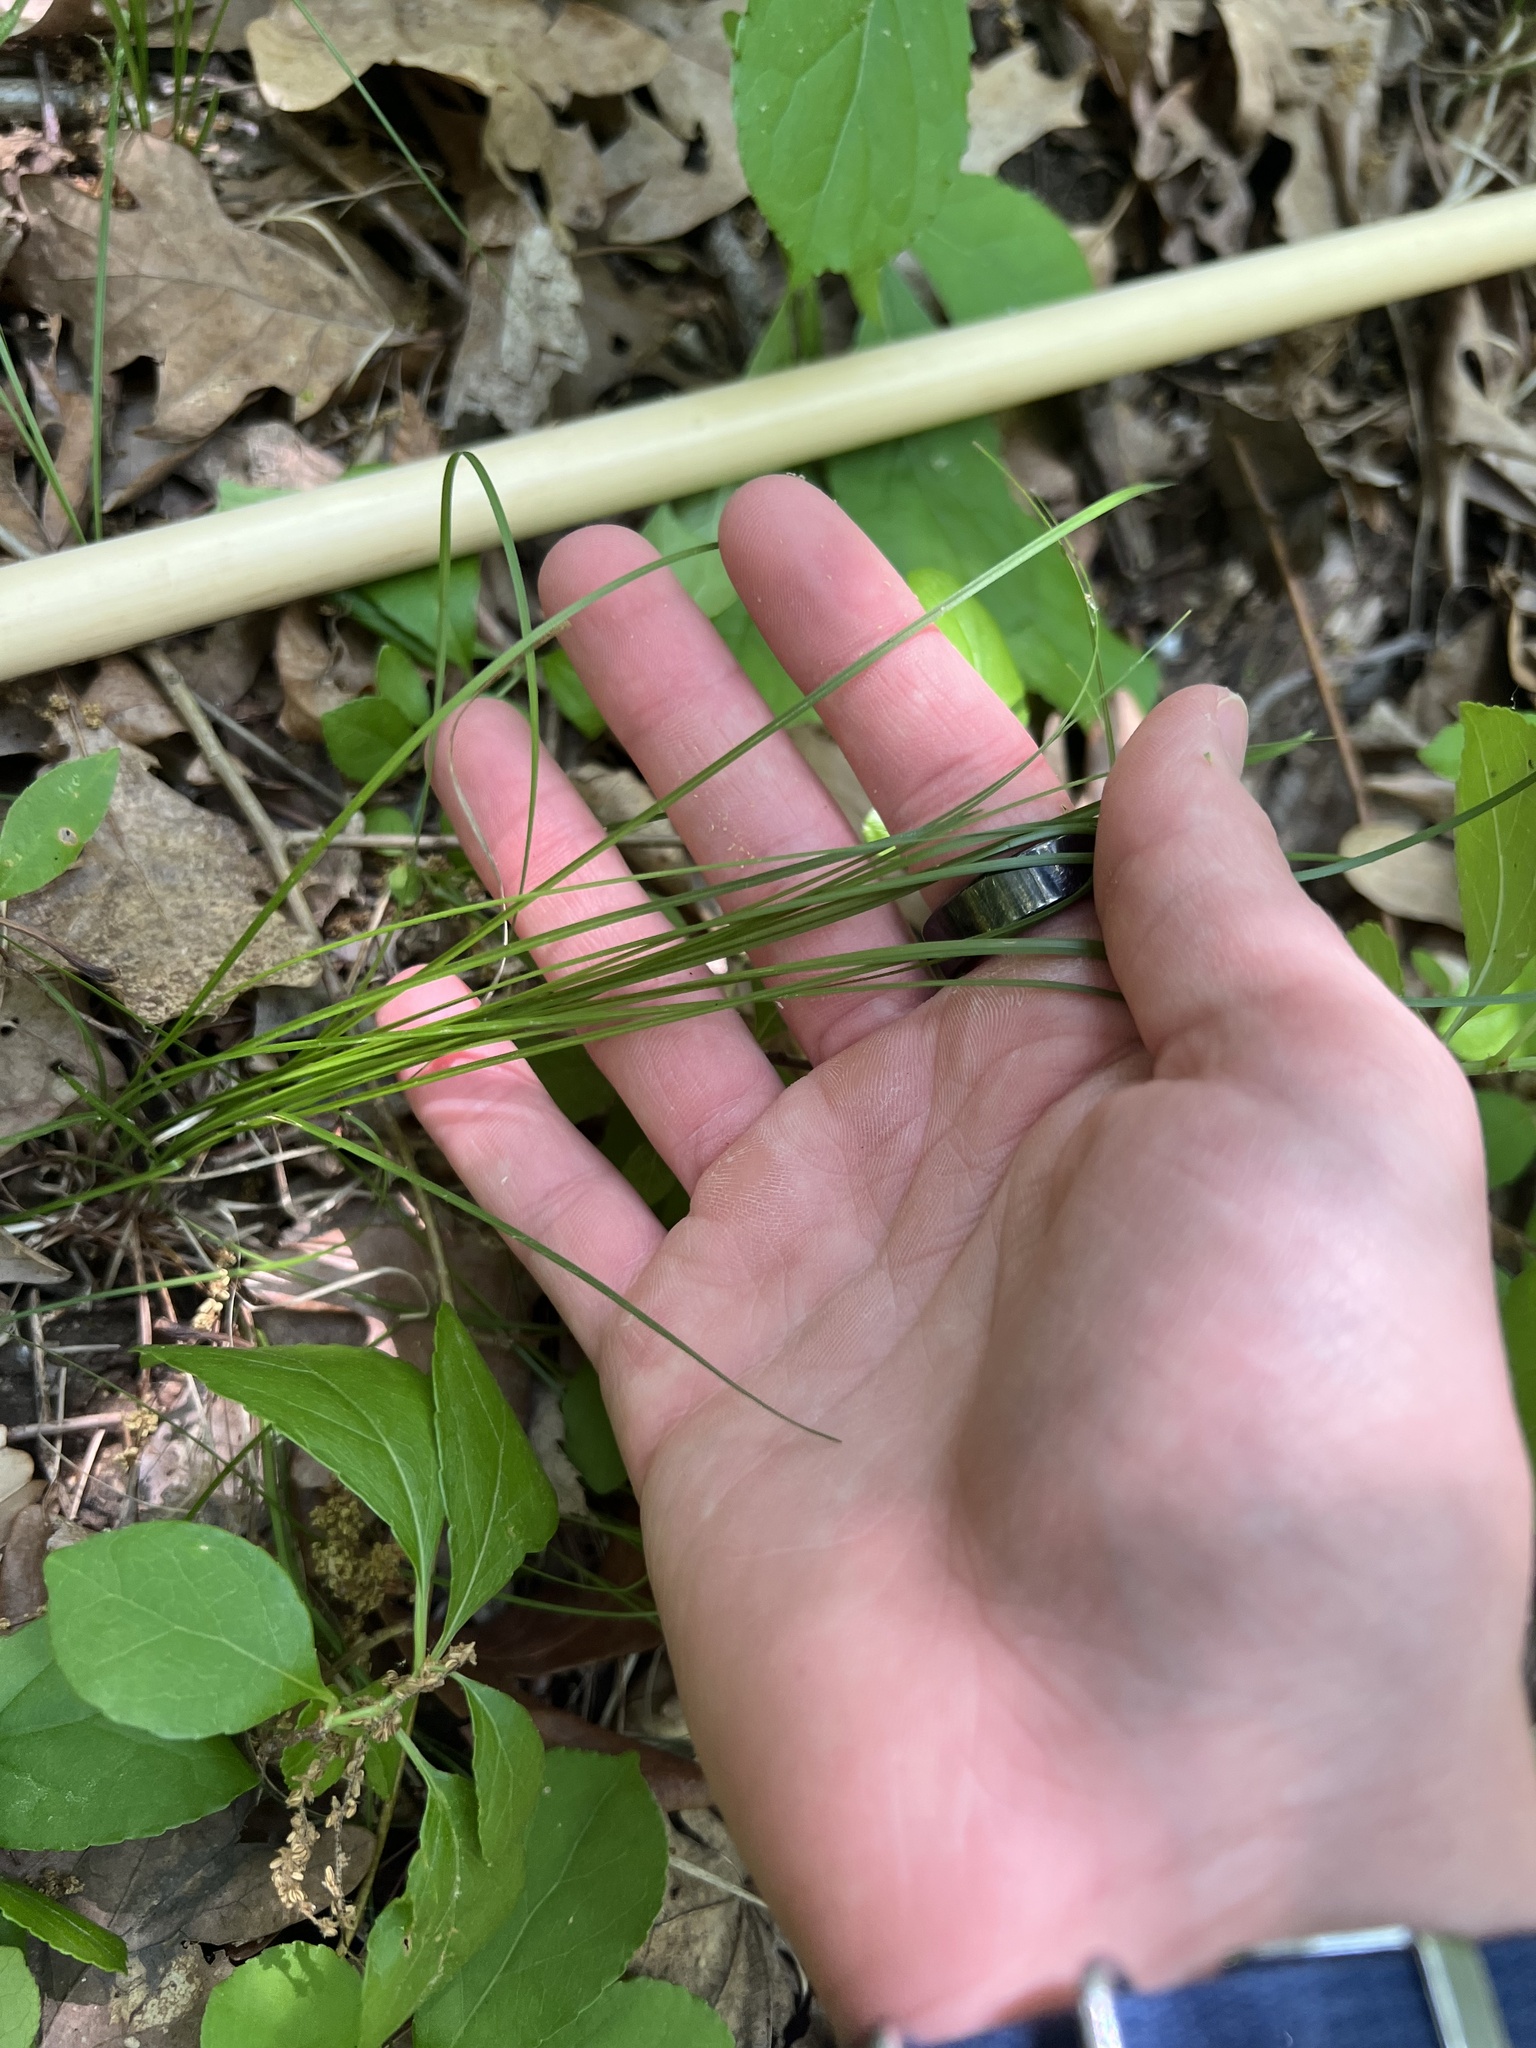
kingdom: Plantae
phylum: Tracheophyta
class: Liliopsida
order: Poales
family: Cyperaceae
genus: Carex
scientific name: Carex
